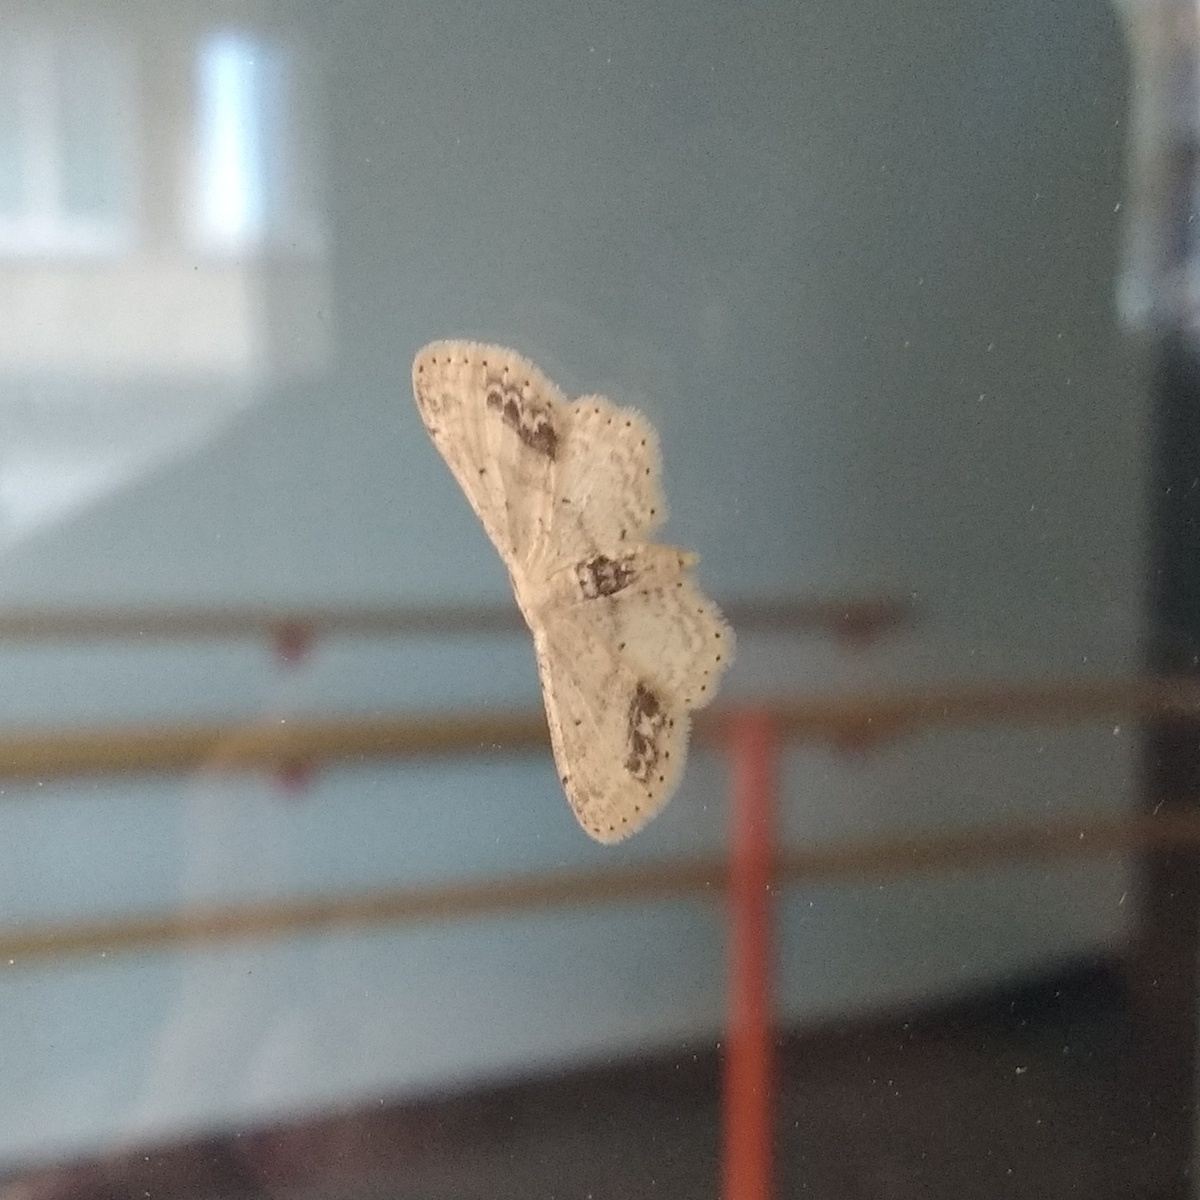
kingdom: Animalia
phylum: Arthropoda
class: Insecta
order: Lepidoptera
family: Geometridae
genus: Idaea
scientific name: Idaea dimidiata
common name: Single-dotted wave
